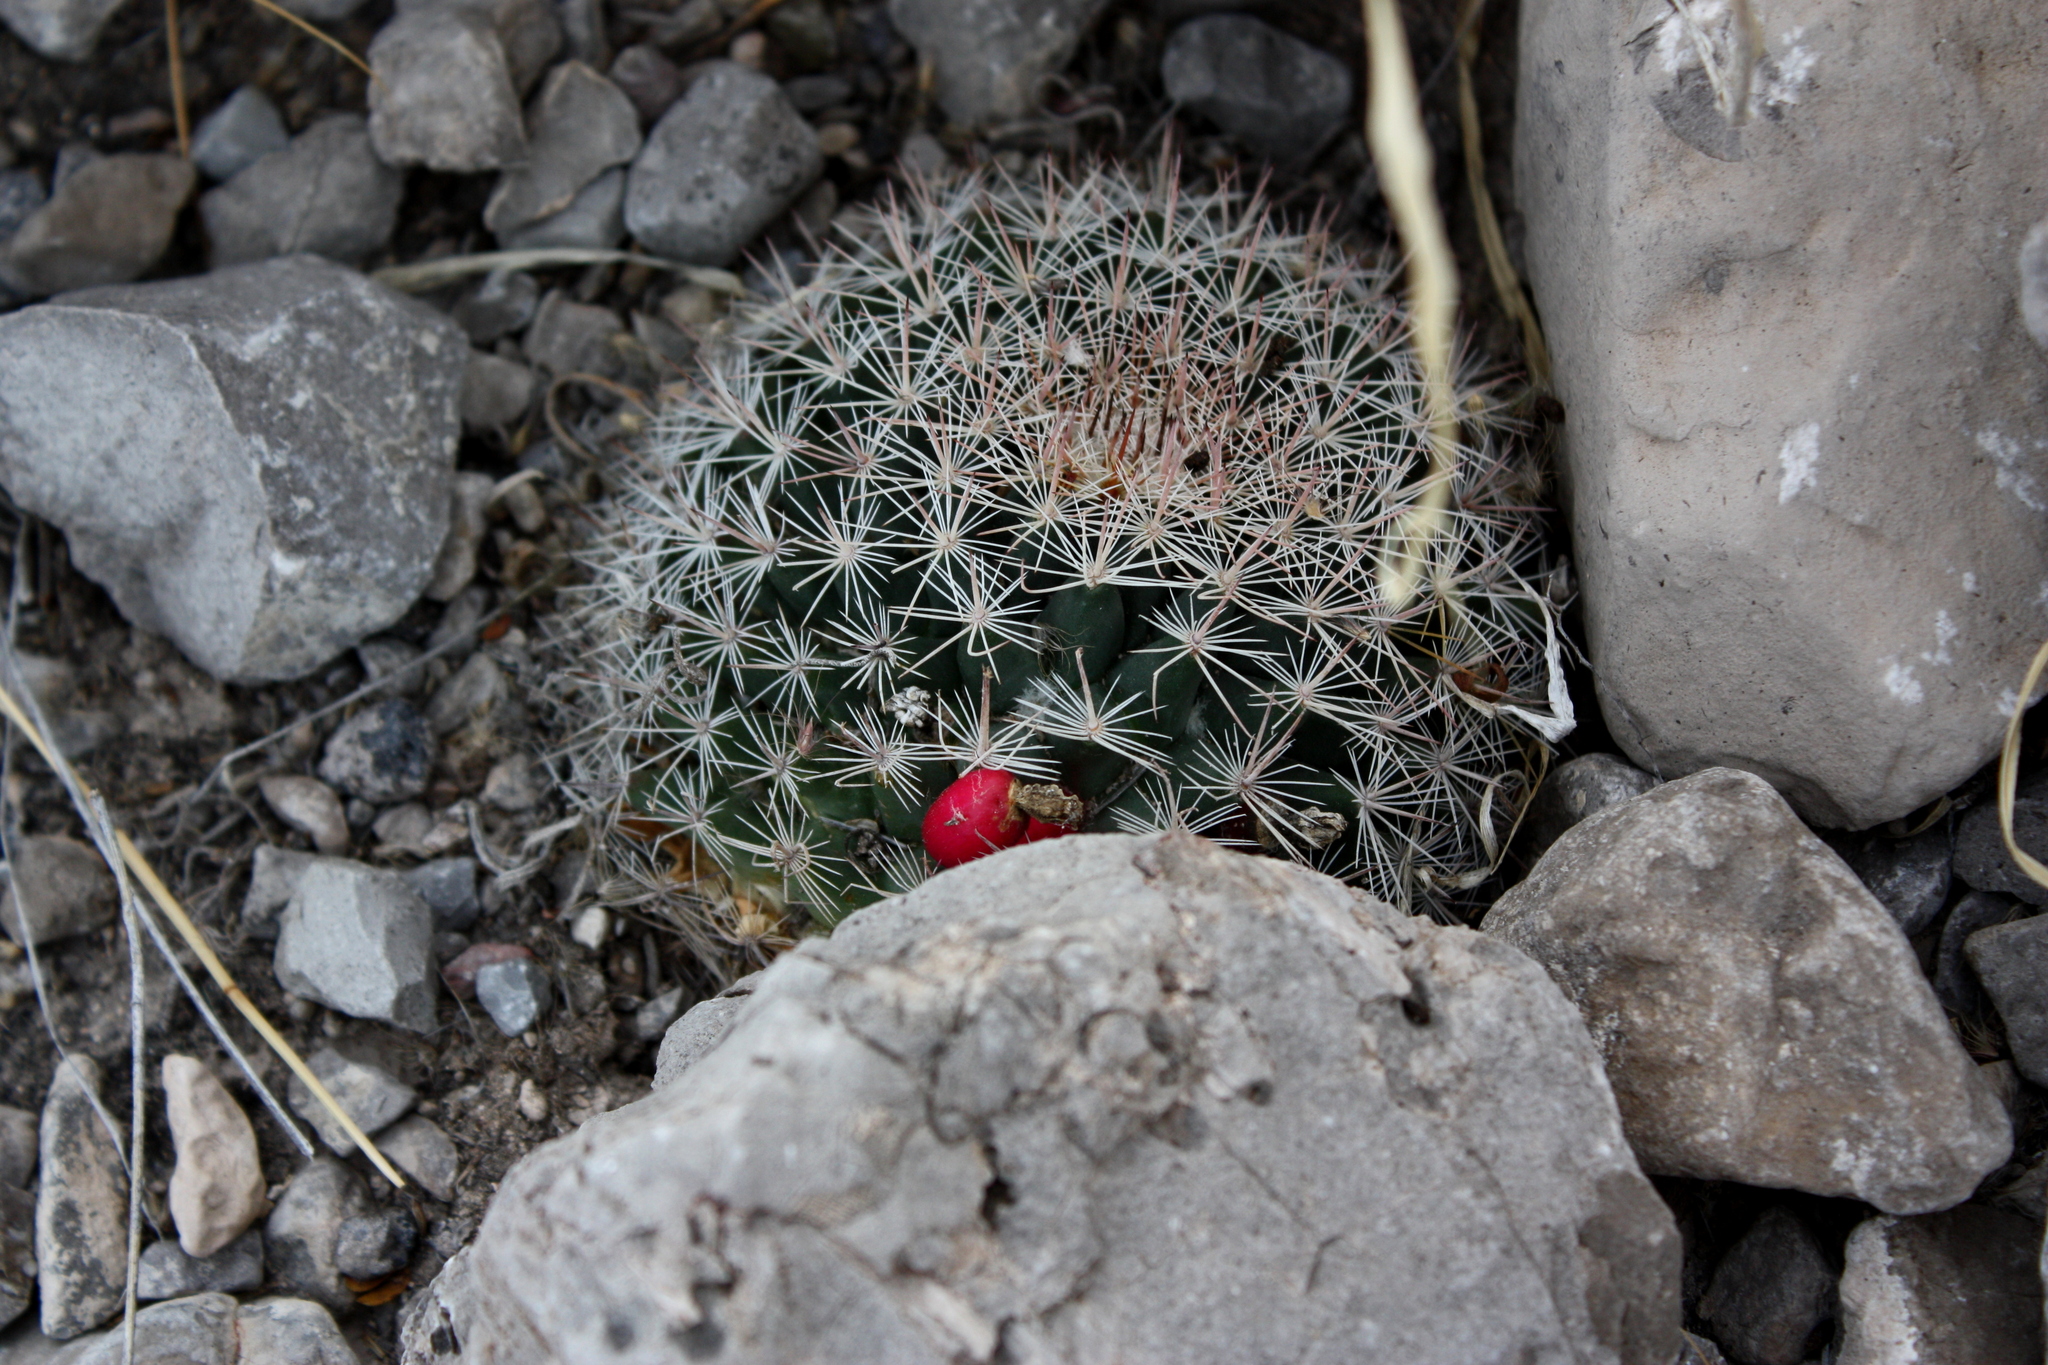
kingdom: Plantae
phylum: Tracheophyta
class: Magnoliopsida
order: Caryophyllales
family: Cactaceae
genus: Mammillaria
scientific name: Mammillaria grusonii
